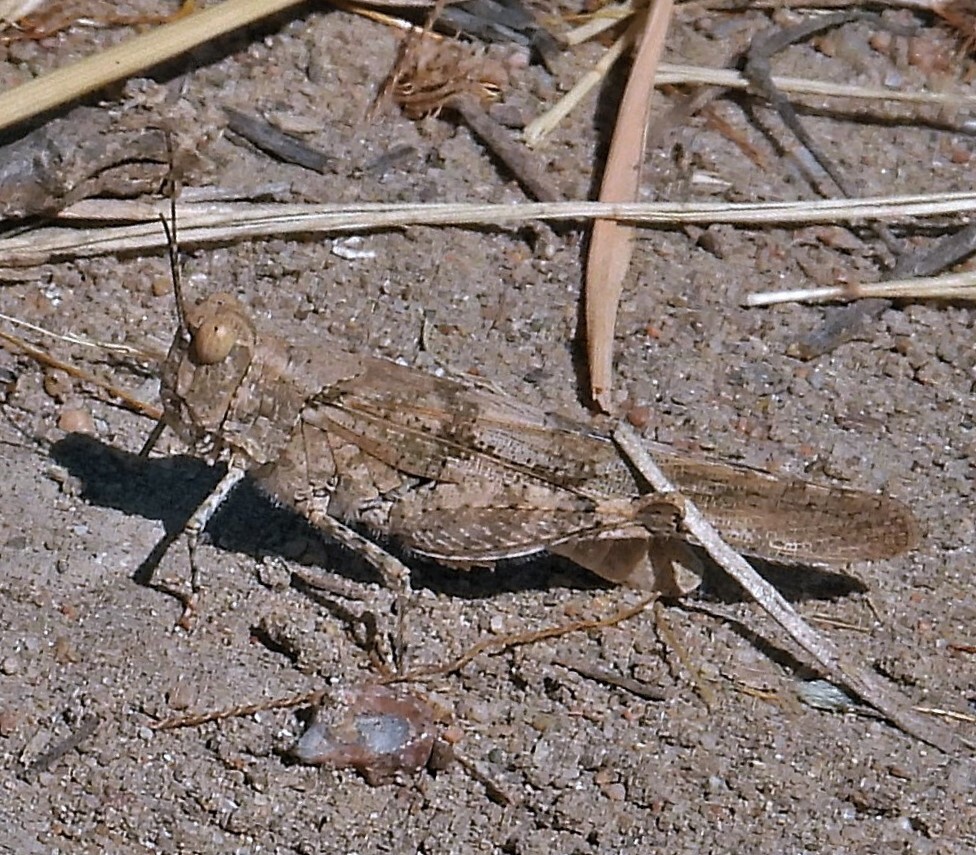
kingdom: Animalia
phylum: Arthropoda
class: Insecta
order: Orthoptera
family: Acrididae
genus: Trimerotropis
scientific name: Trimerotropis pallidipennis
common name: Pallid-winged grasshopper
